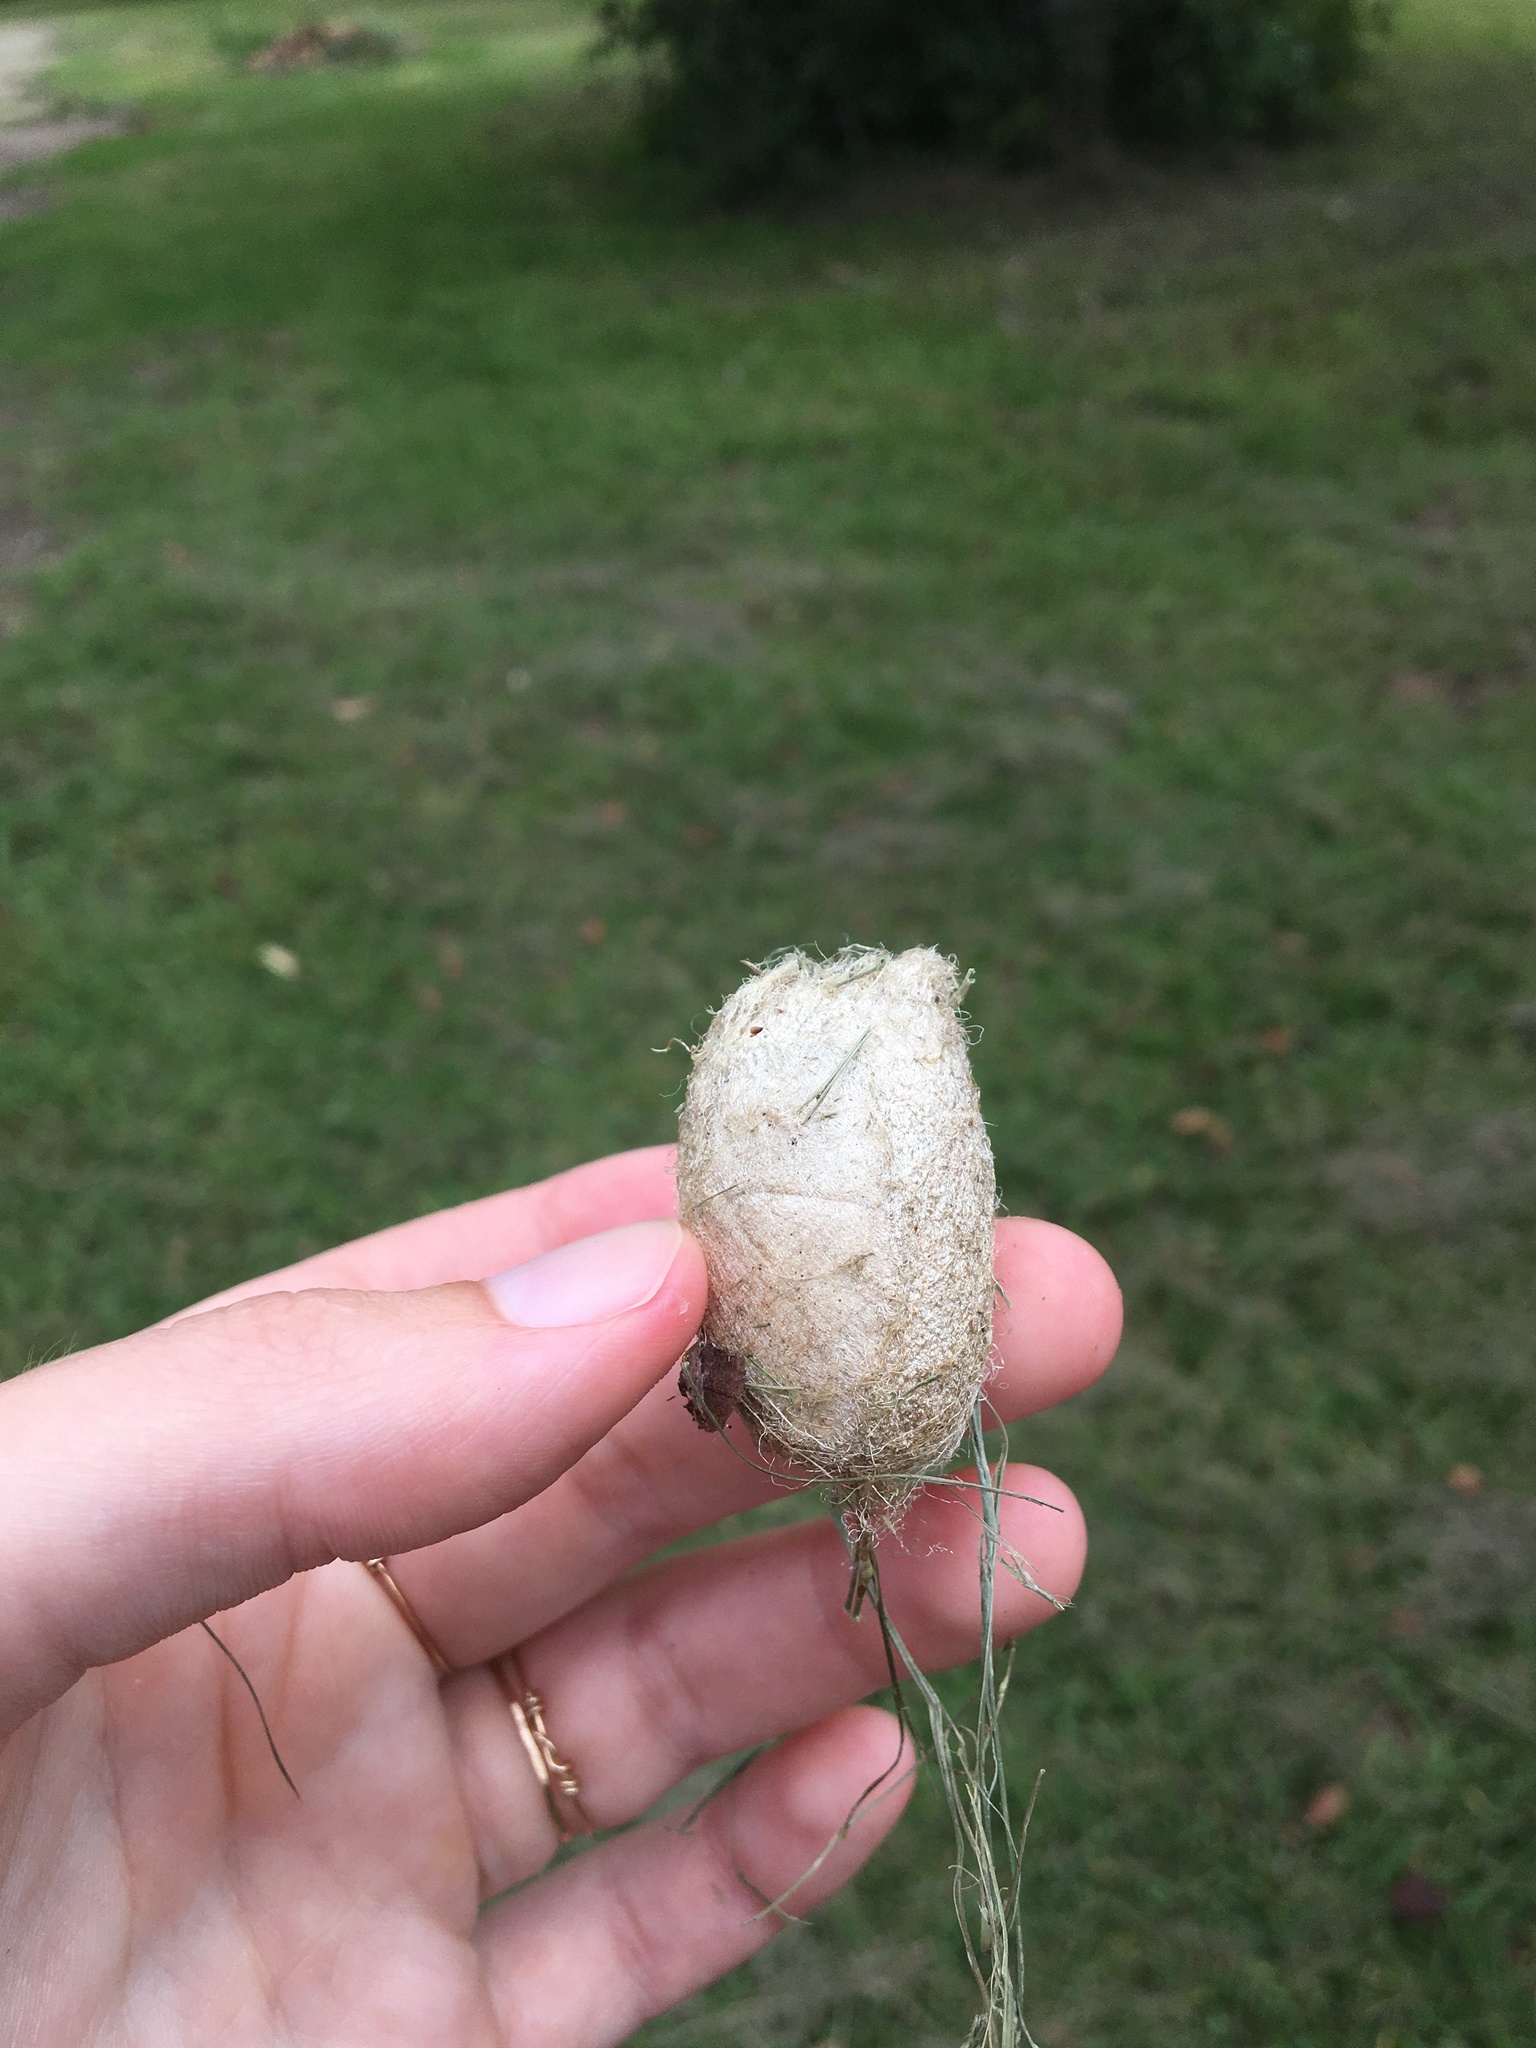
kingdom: Animalia
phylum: Arthropoda
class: Insecta
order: Lepidoptera
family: Saturniidae
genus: Antheraea
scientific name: Antheraea polyphemus
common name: Polyphemus moth
